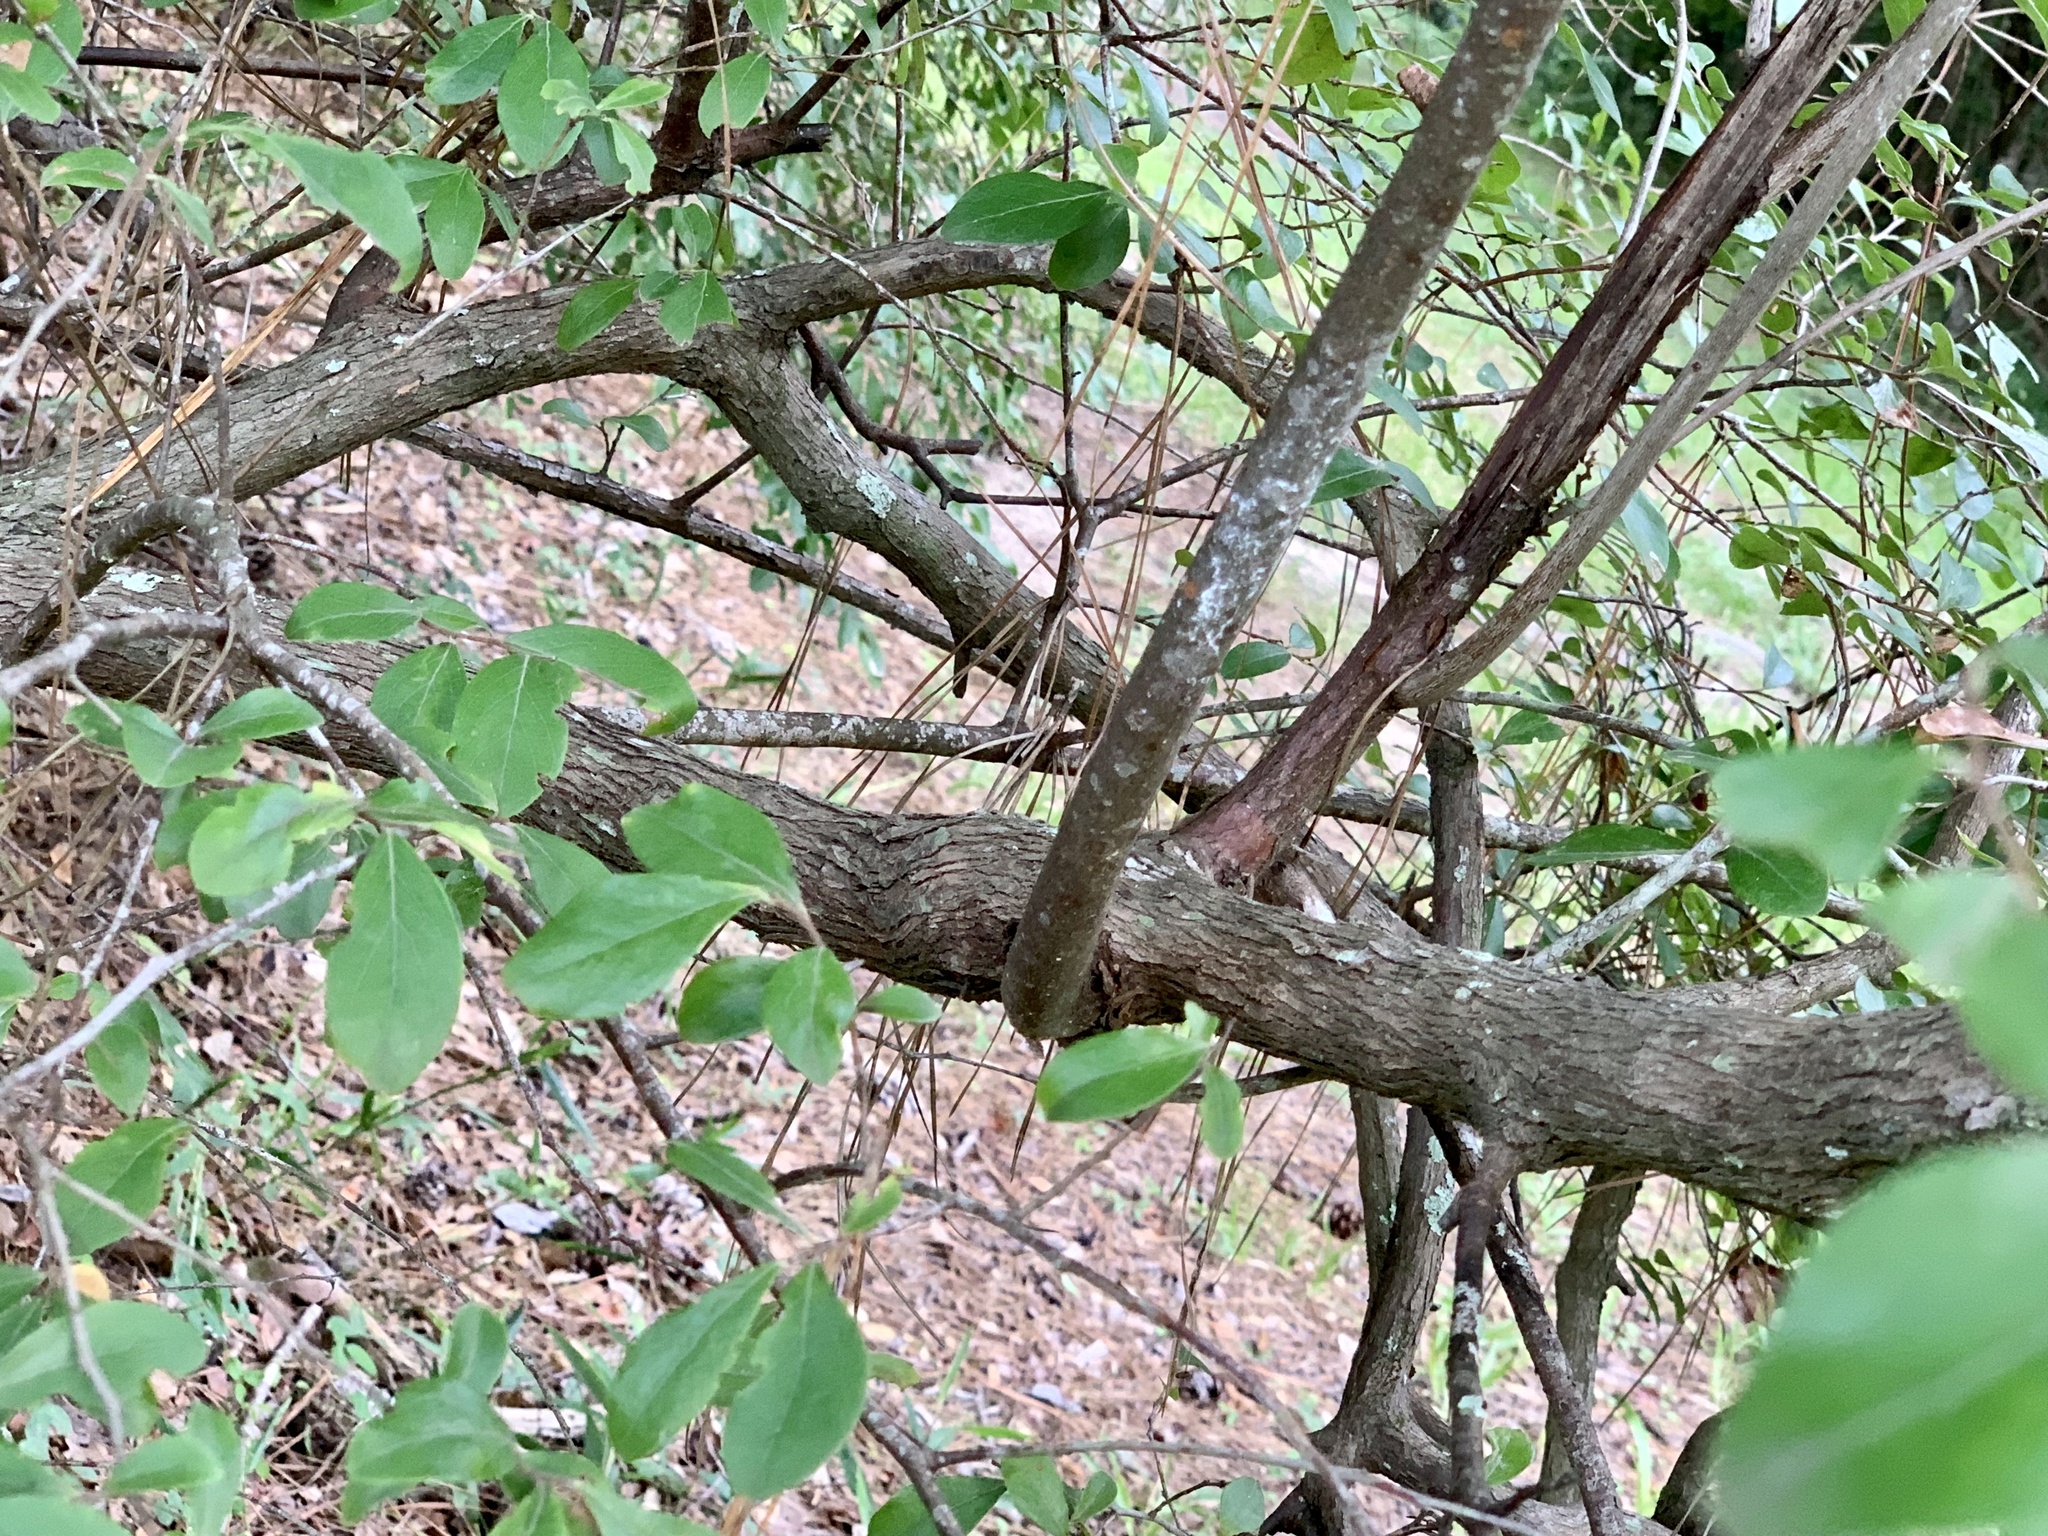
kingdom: Plantae
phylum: Tracheophyta
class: Magnoliopsida
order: Ericales
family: Ericaceae
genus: Vaccinium
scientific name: Vaccinium arboreum
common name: Farkleberry
